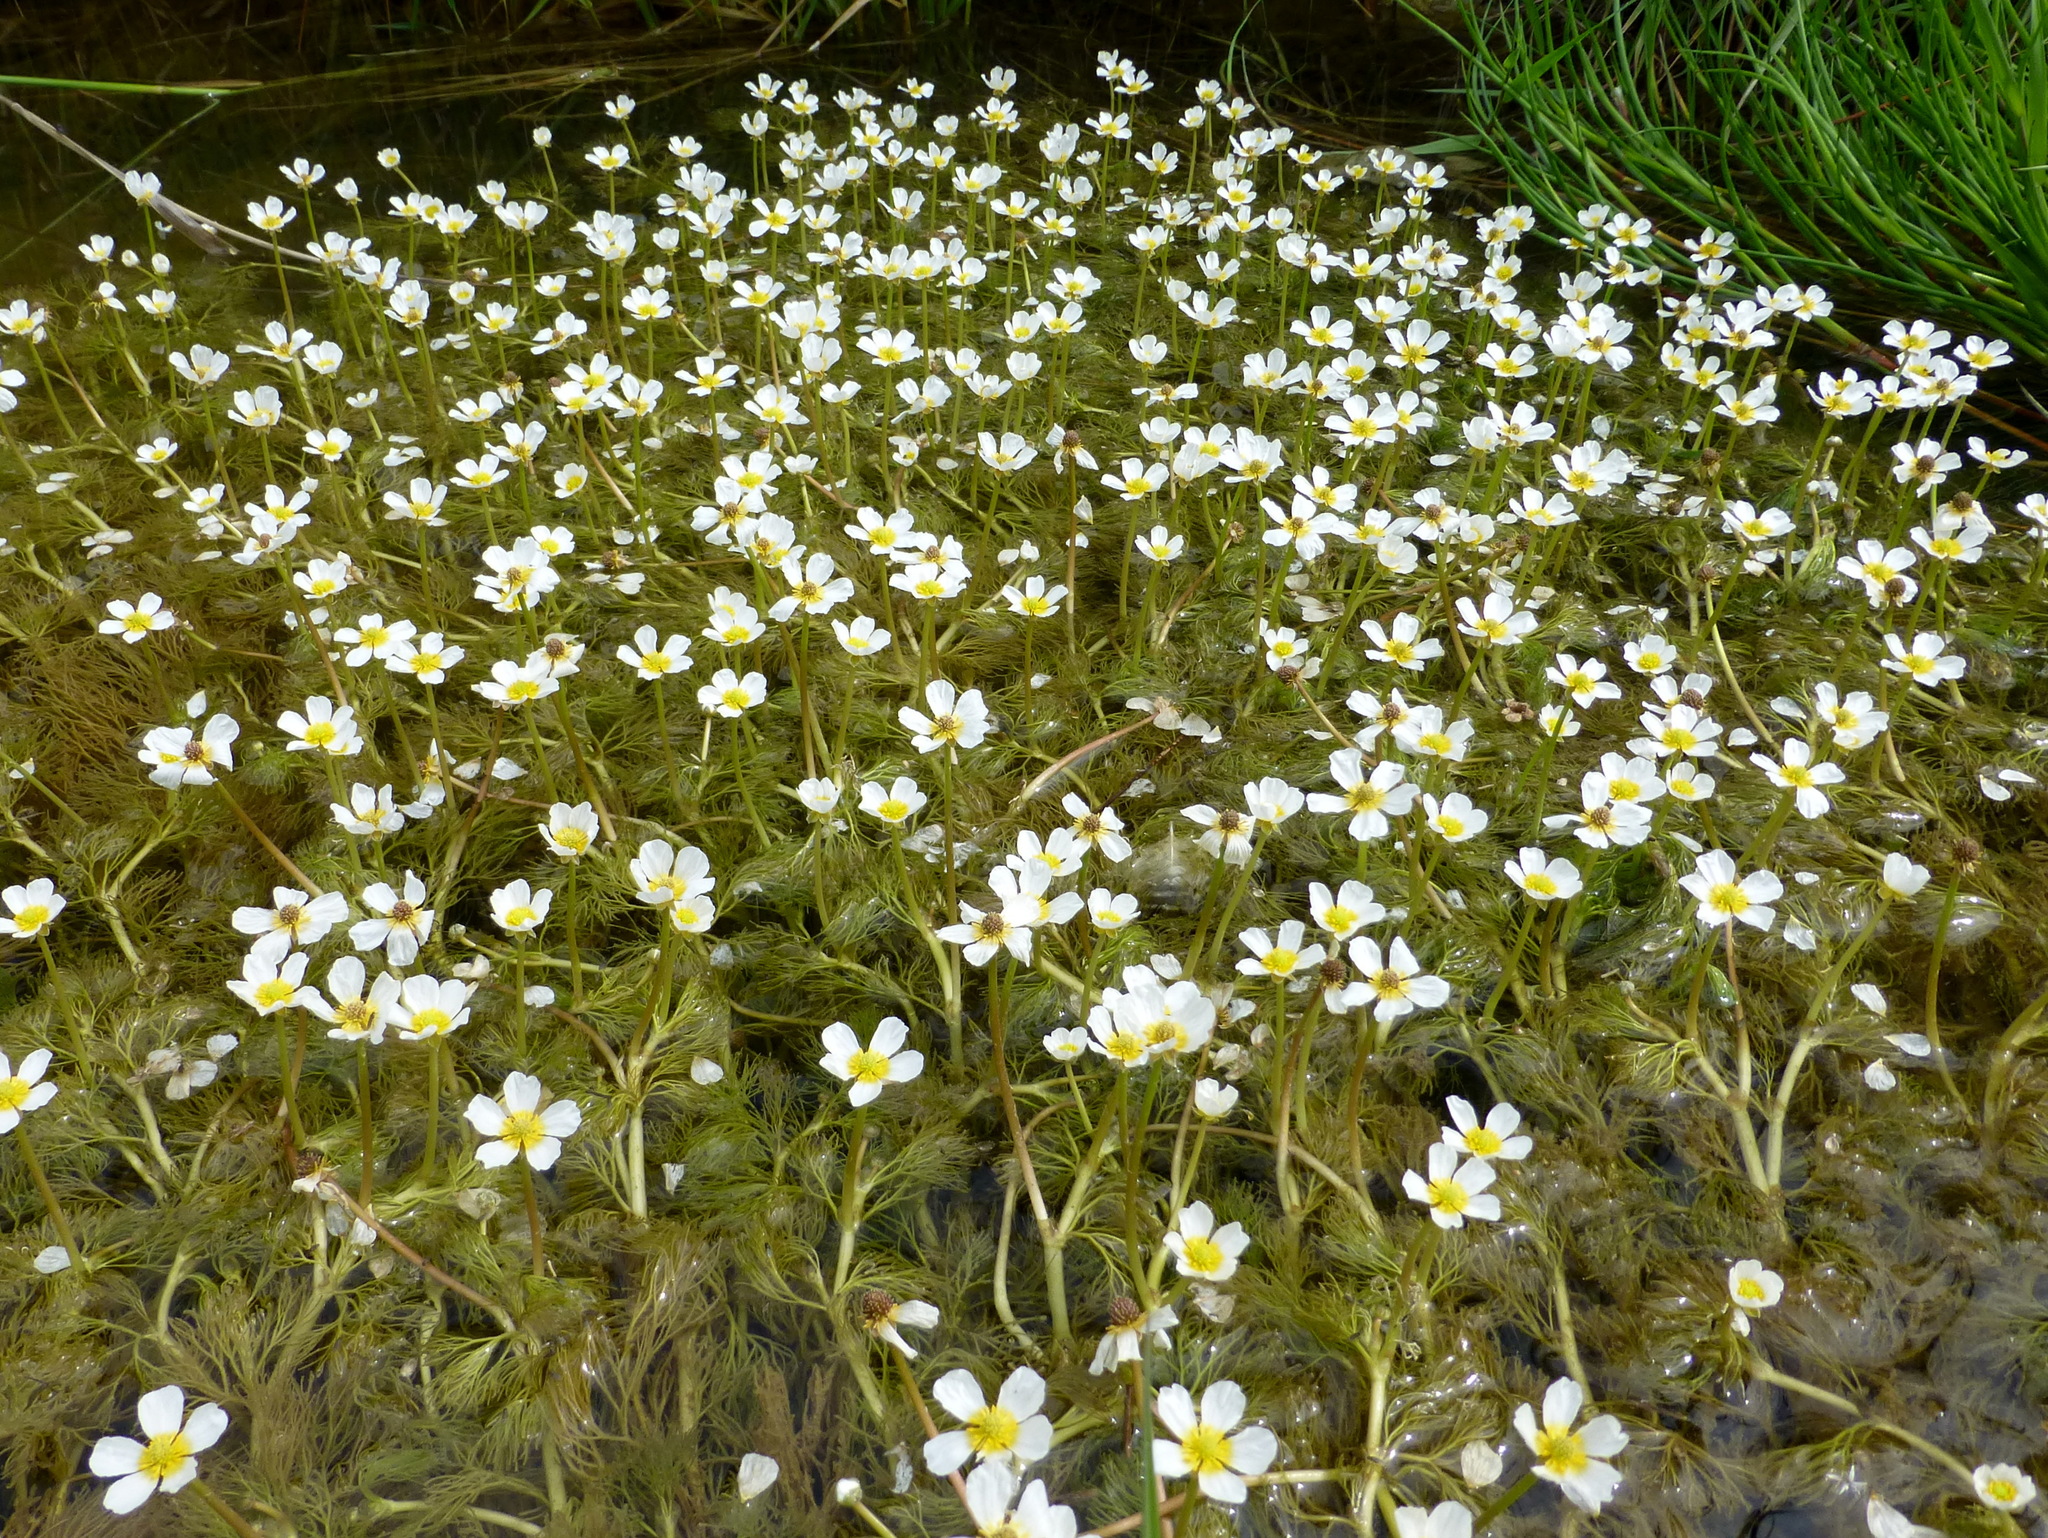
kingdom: Plantae
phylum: Tracheophyta
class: Magnoliopsida
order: Ranunculales
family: Ranunculaceae
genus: Ranunculus
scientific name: Ranunculus trichophyllus
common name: Thread-leaved water-crowfoot
